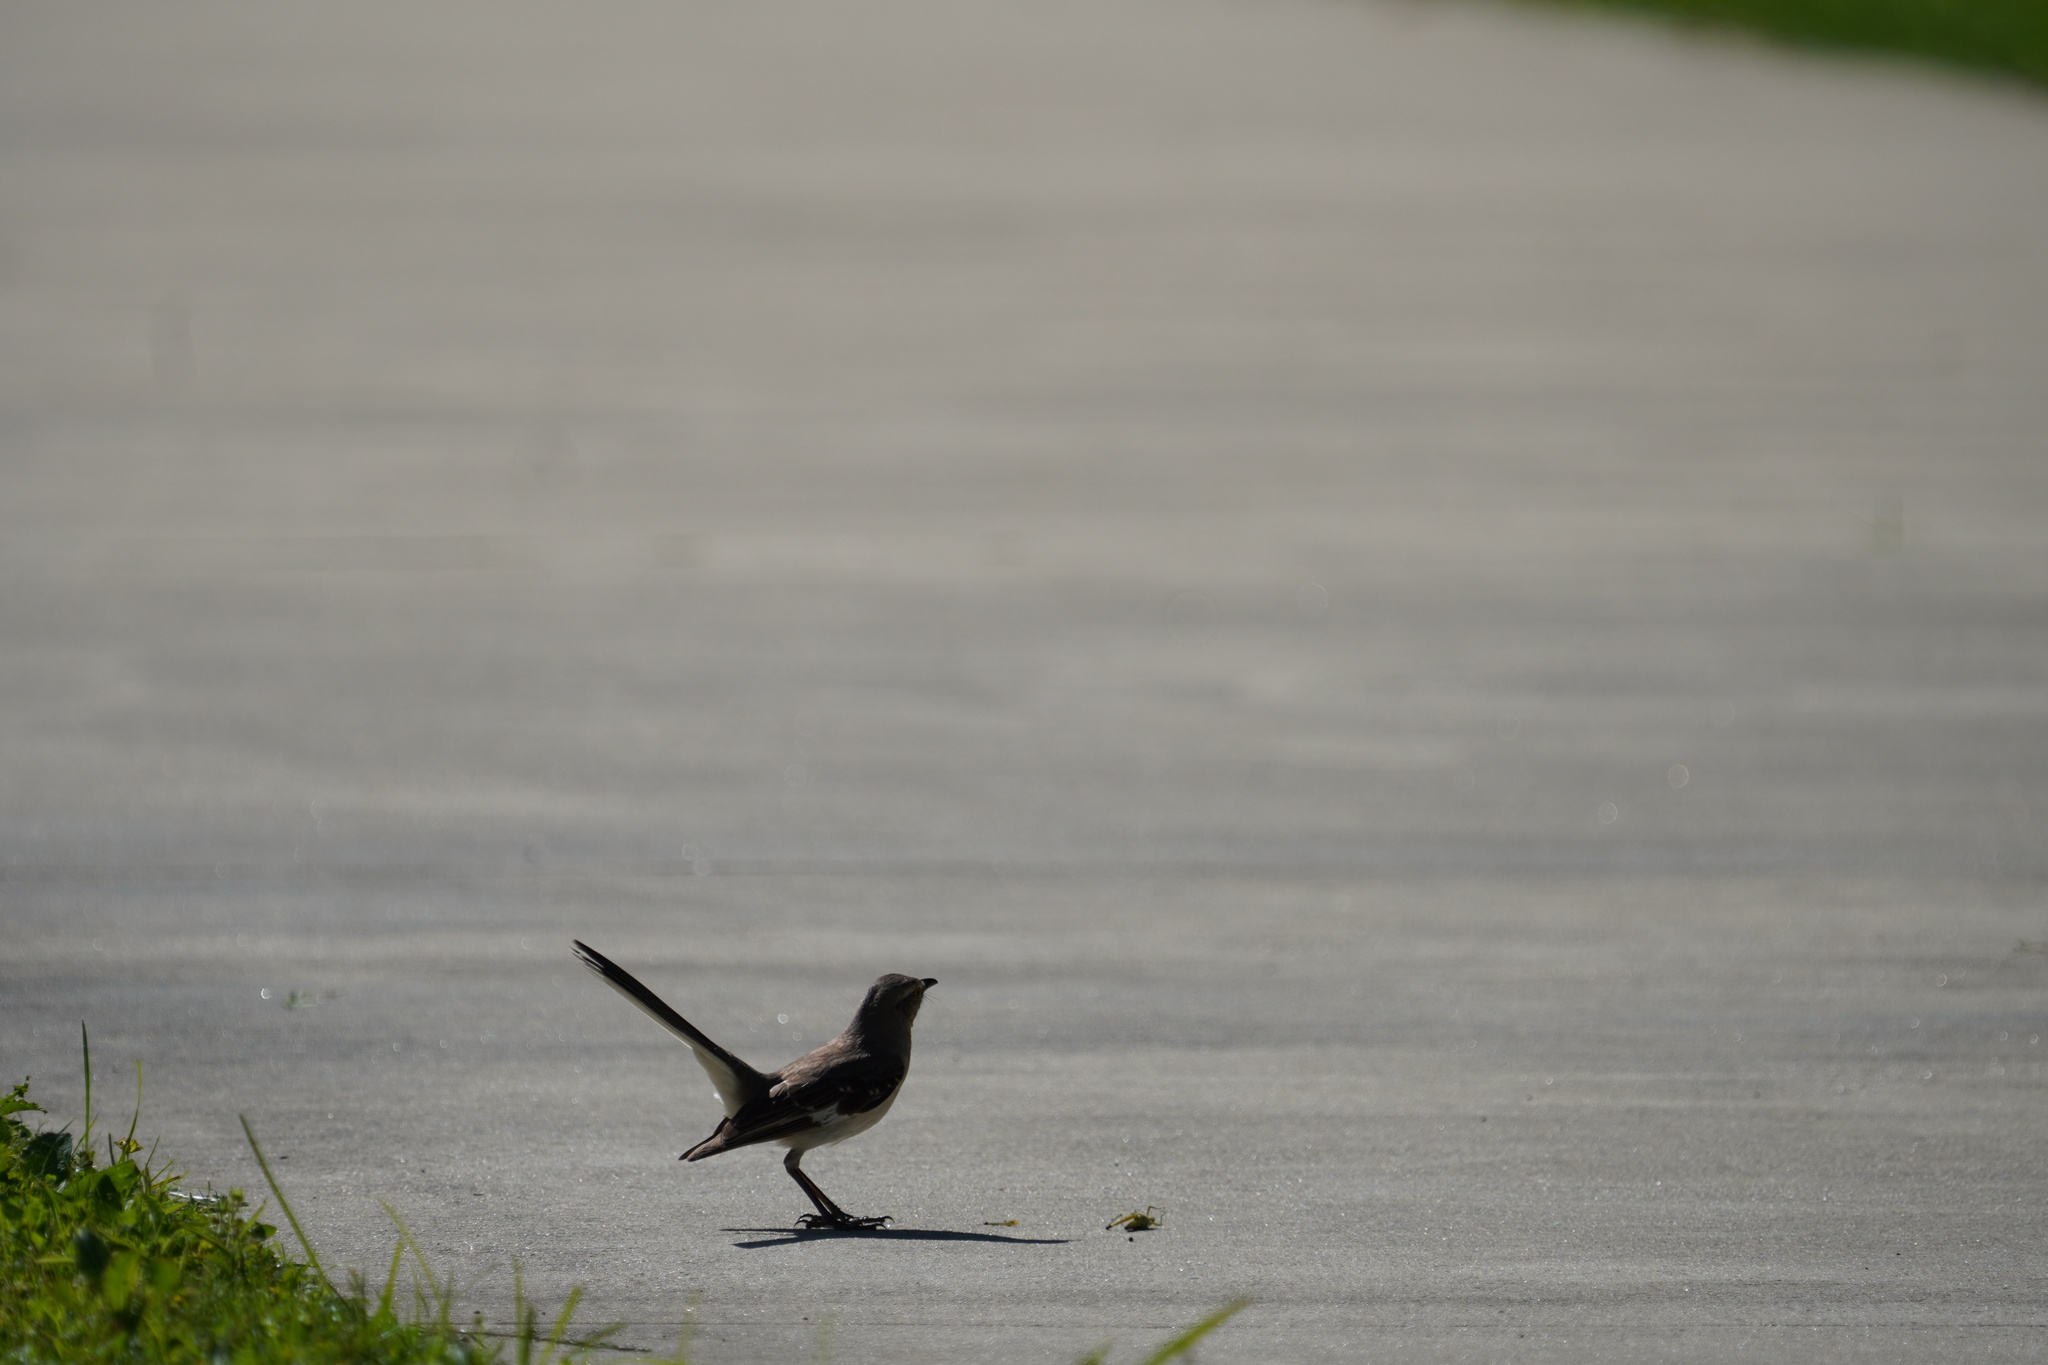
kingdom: Animalia
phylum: Chordata
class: Aves
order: Passeriformes
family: Mimidae
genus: Mimus
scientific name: Mimus polyglottos
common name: Northern mockingbird
